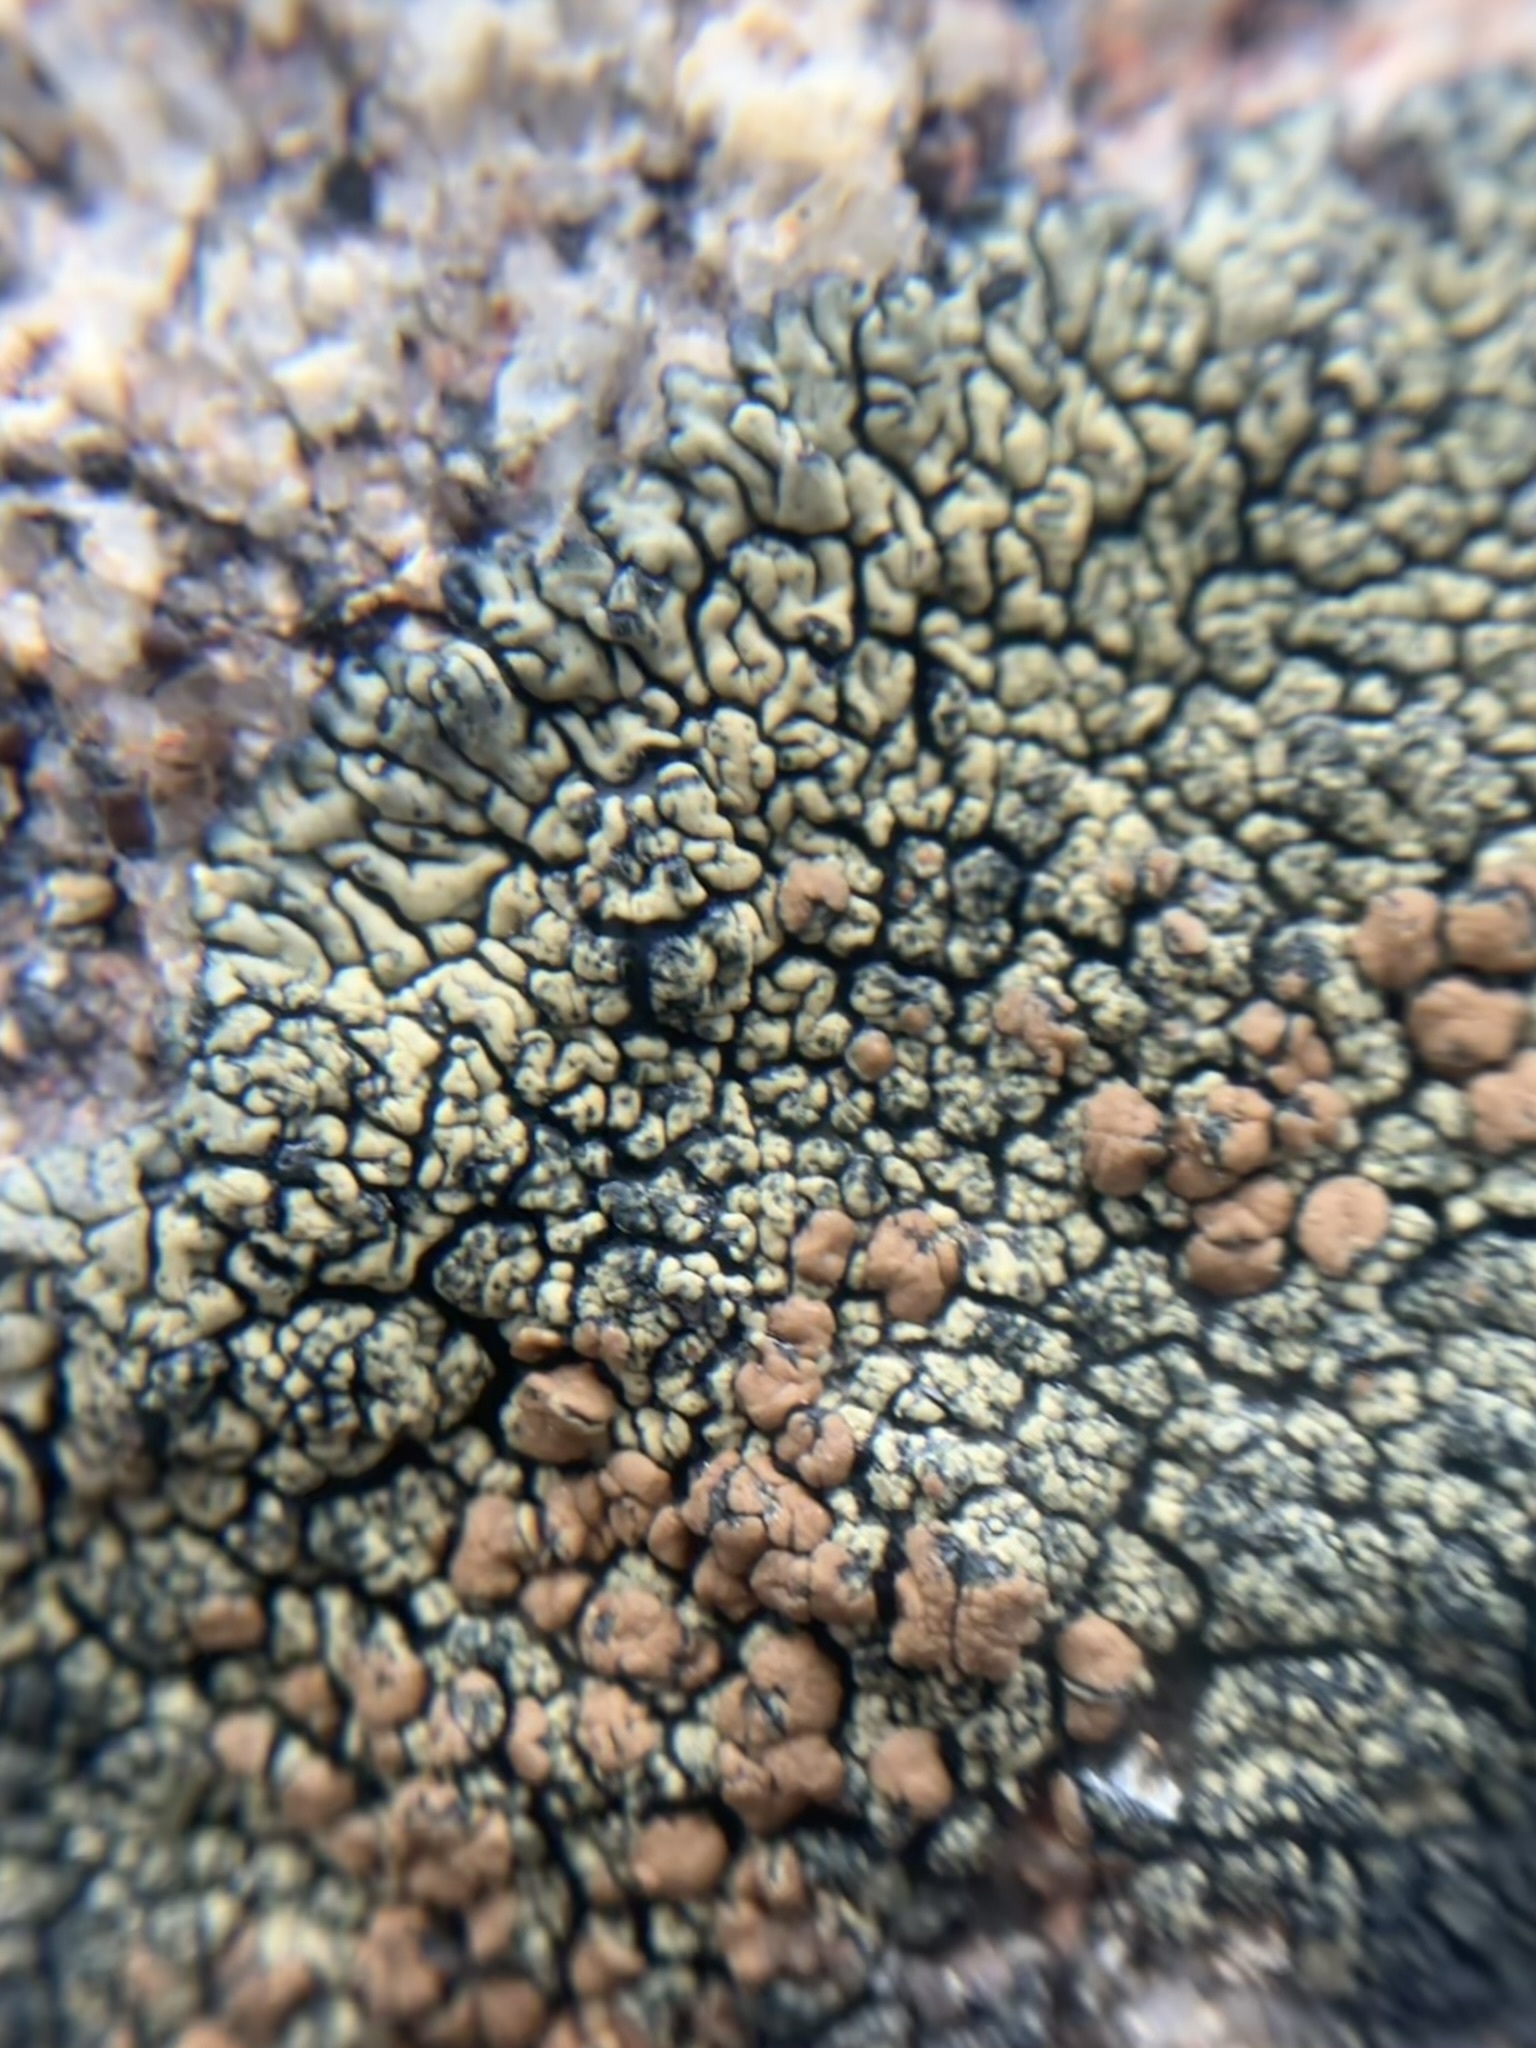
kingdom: Fungi
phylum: Ascomycota
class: Lecanoromycetes
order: Lecanorales
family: Lecanoraceae
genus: Protoparmeliopsis
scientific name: Protoparmeliopsis sierrae
